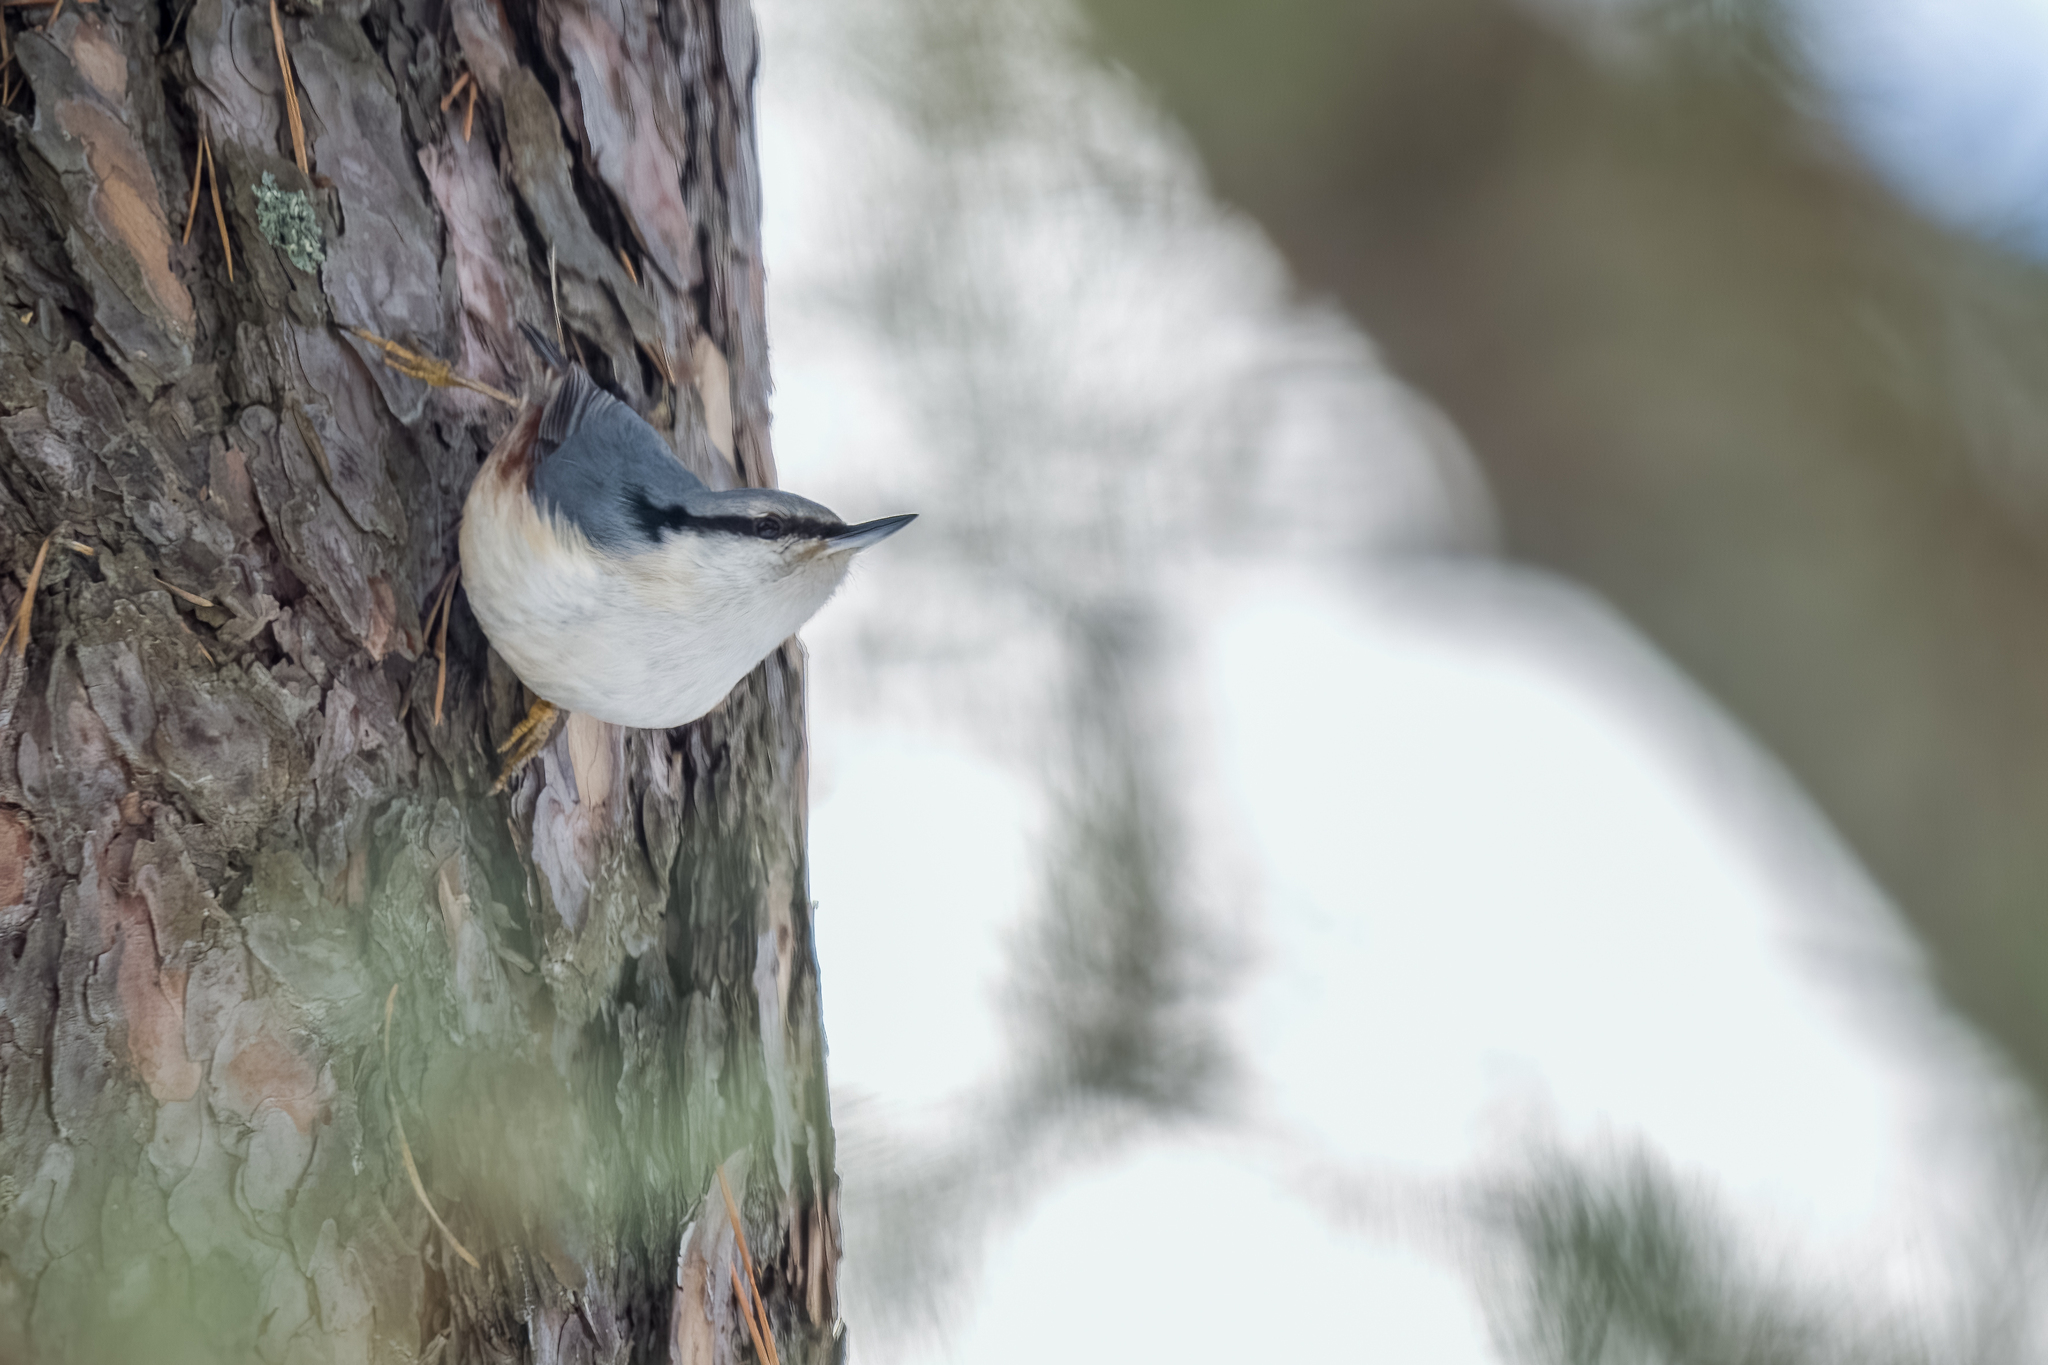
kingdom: Animalia
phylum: Chordata
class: Aves
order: Passeriformes
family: Sittidae
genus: Sitta
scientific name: Sitta europaea
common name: Eurasian nuthatch
